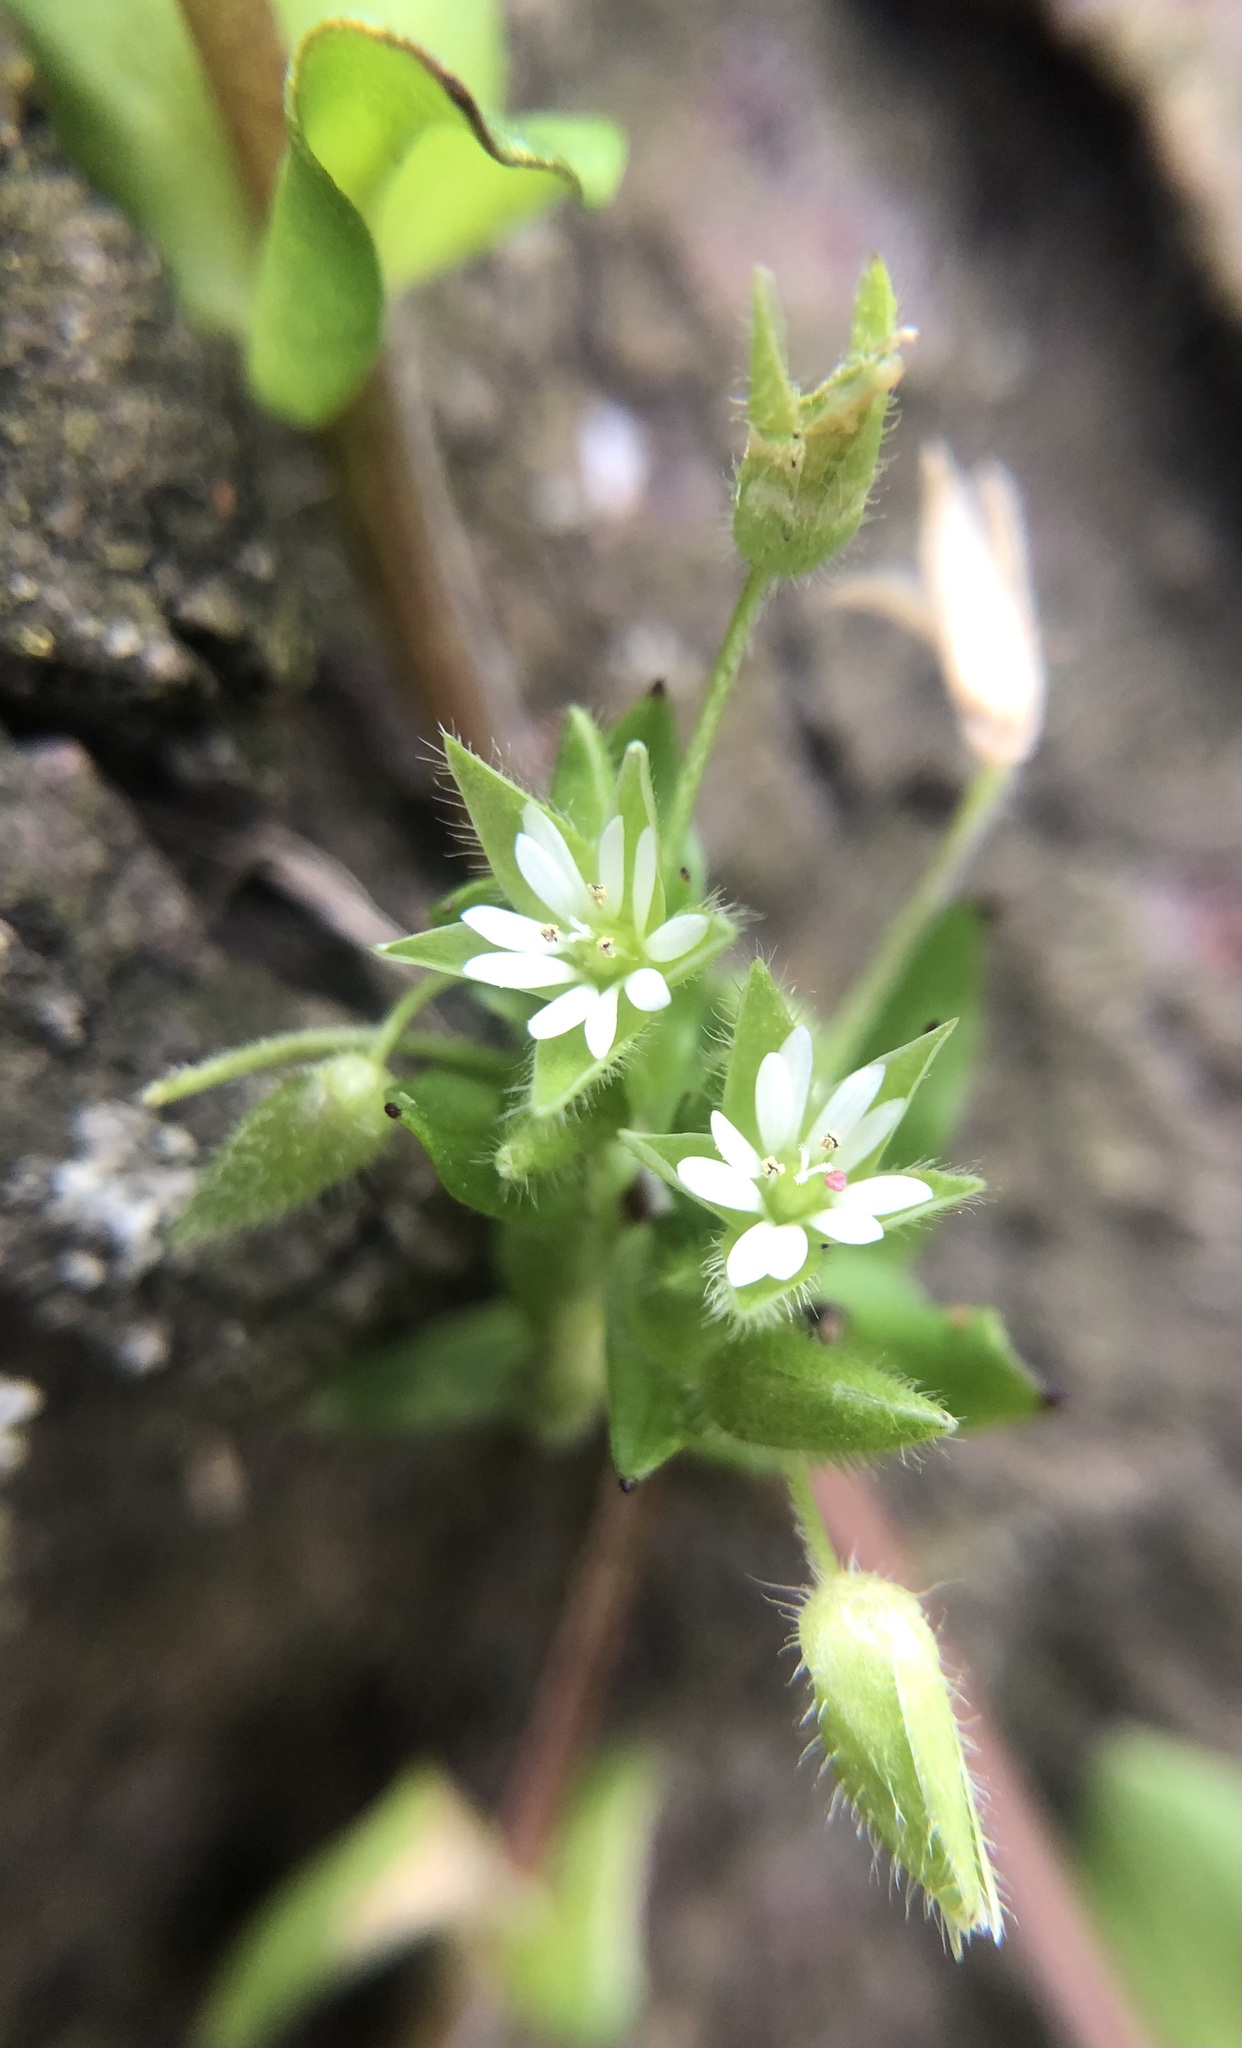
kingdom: Plantae
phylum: Tracheophyta
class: Magnoliopsida
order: Caryophyllales
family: Caryophyllaceae
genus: Stellaria
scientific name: Stellaria media
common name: Common chickweed
